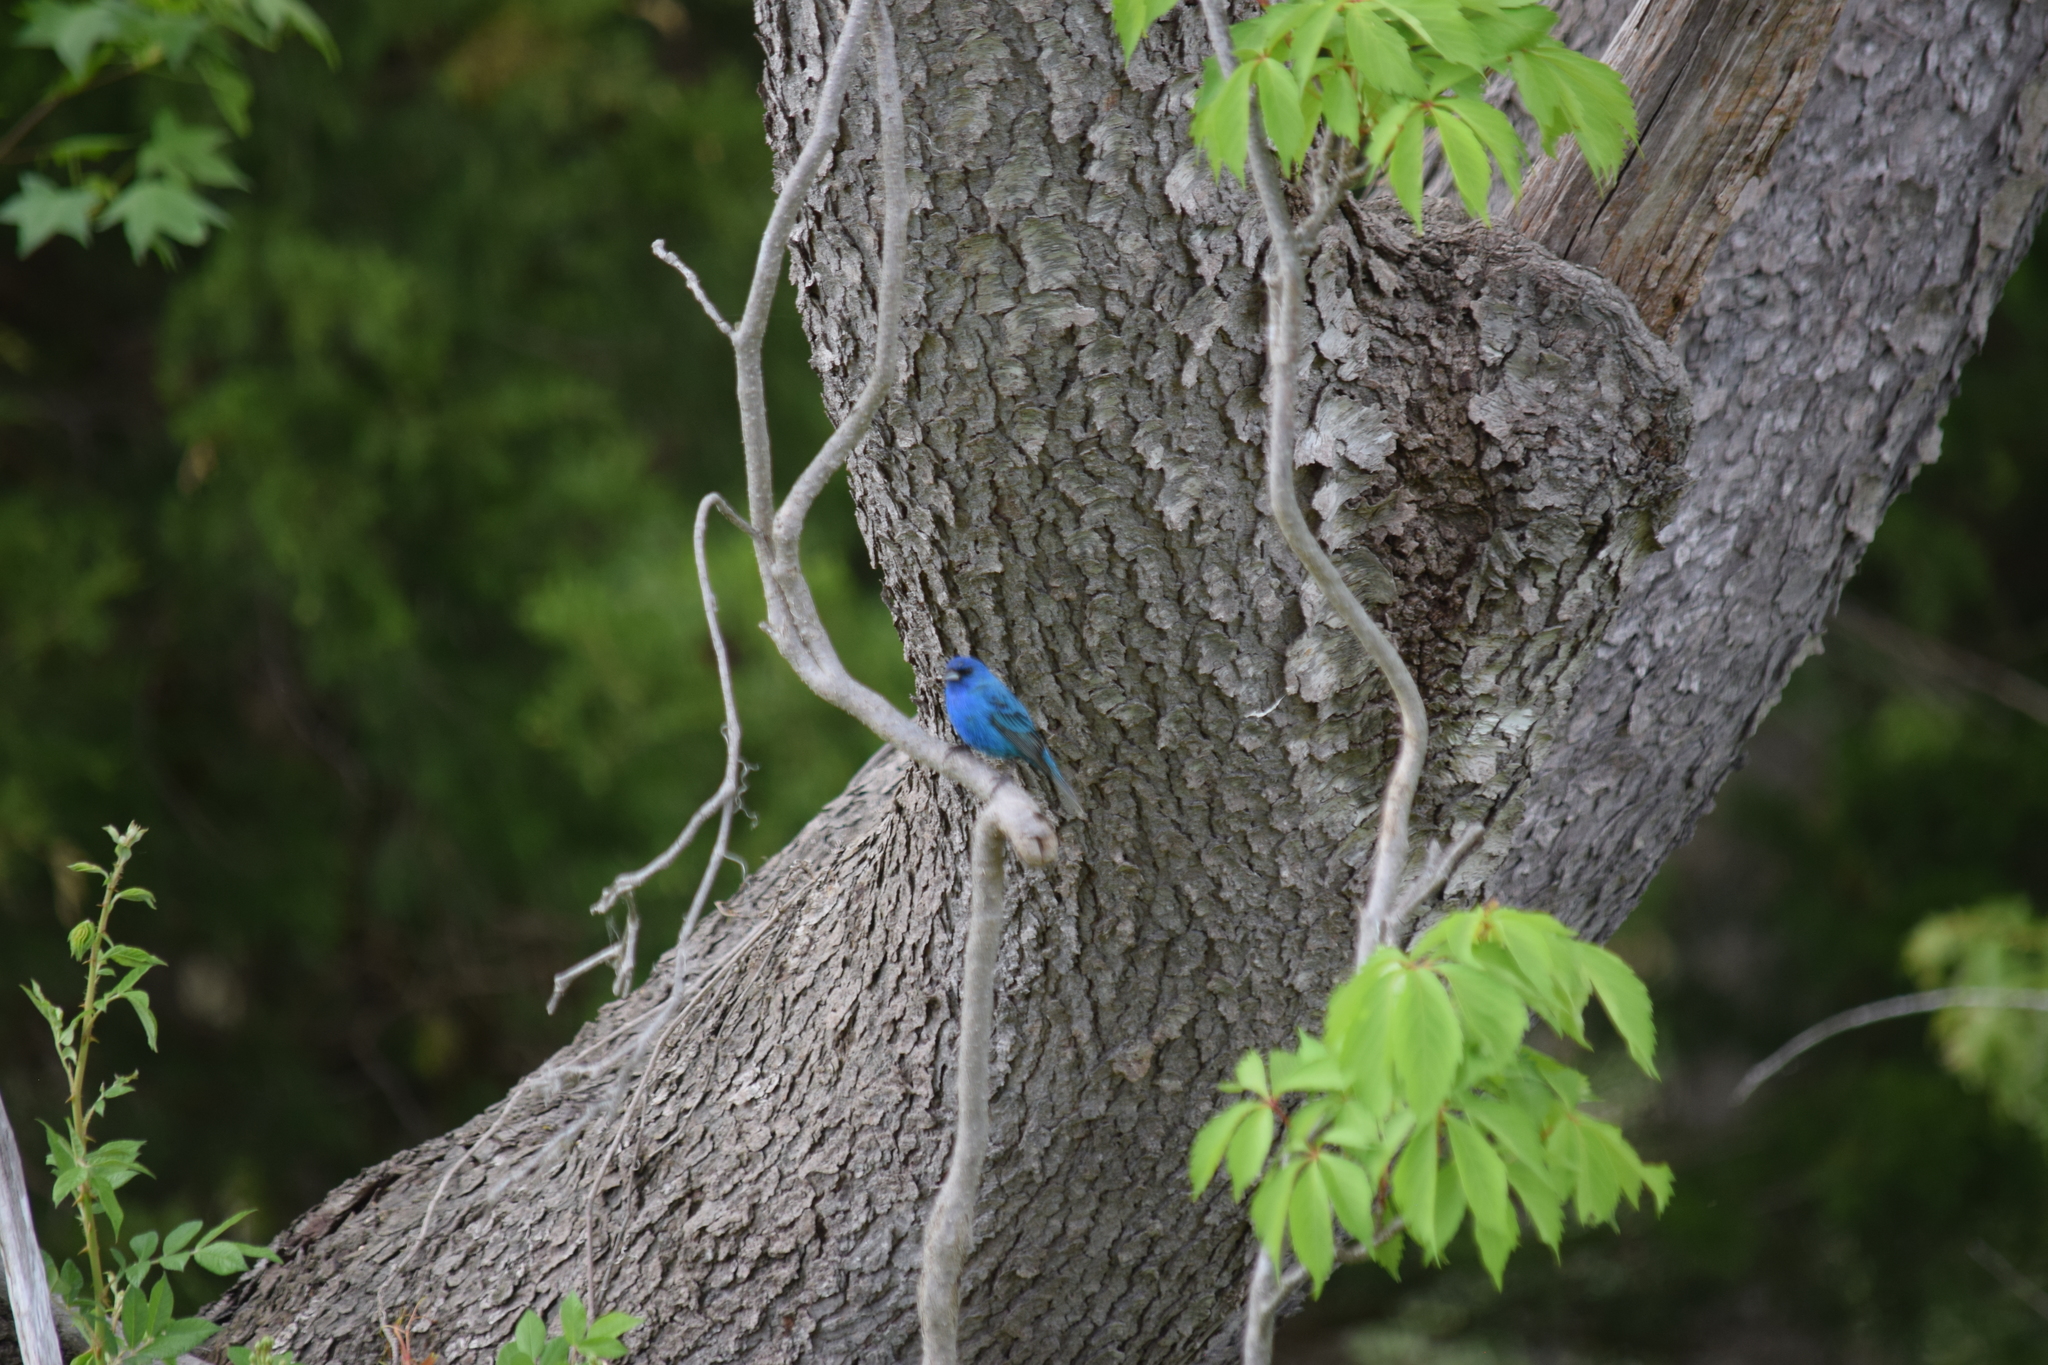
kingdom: Animalia
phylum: Chordata
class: Aves
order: Passeriformes
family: Cardinalidae
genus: Passerina
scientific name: Passerina cyanea
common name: Indigo bunting
